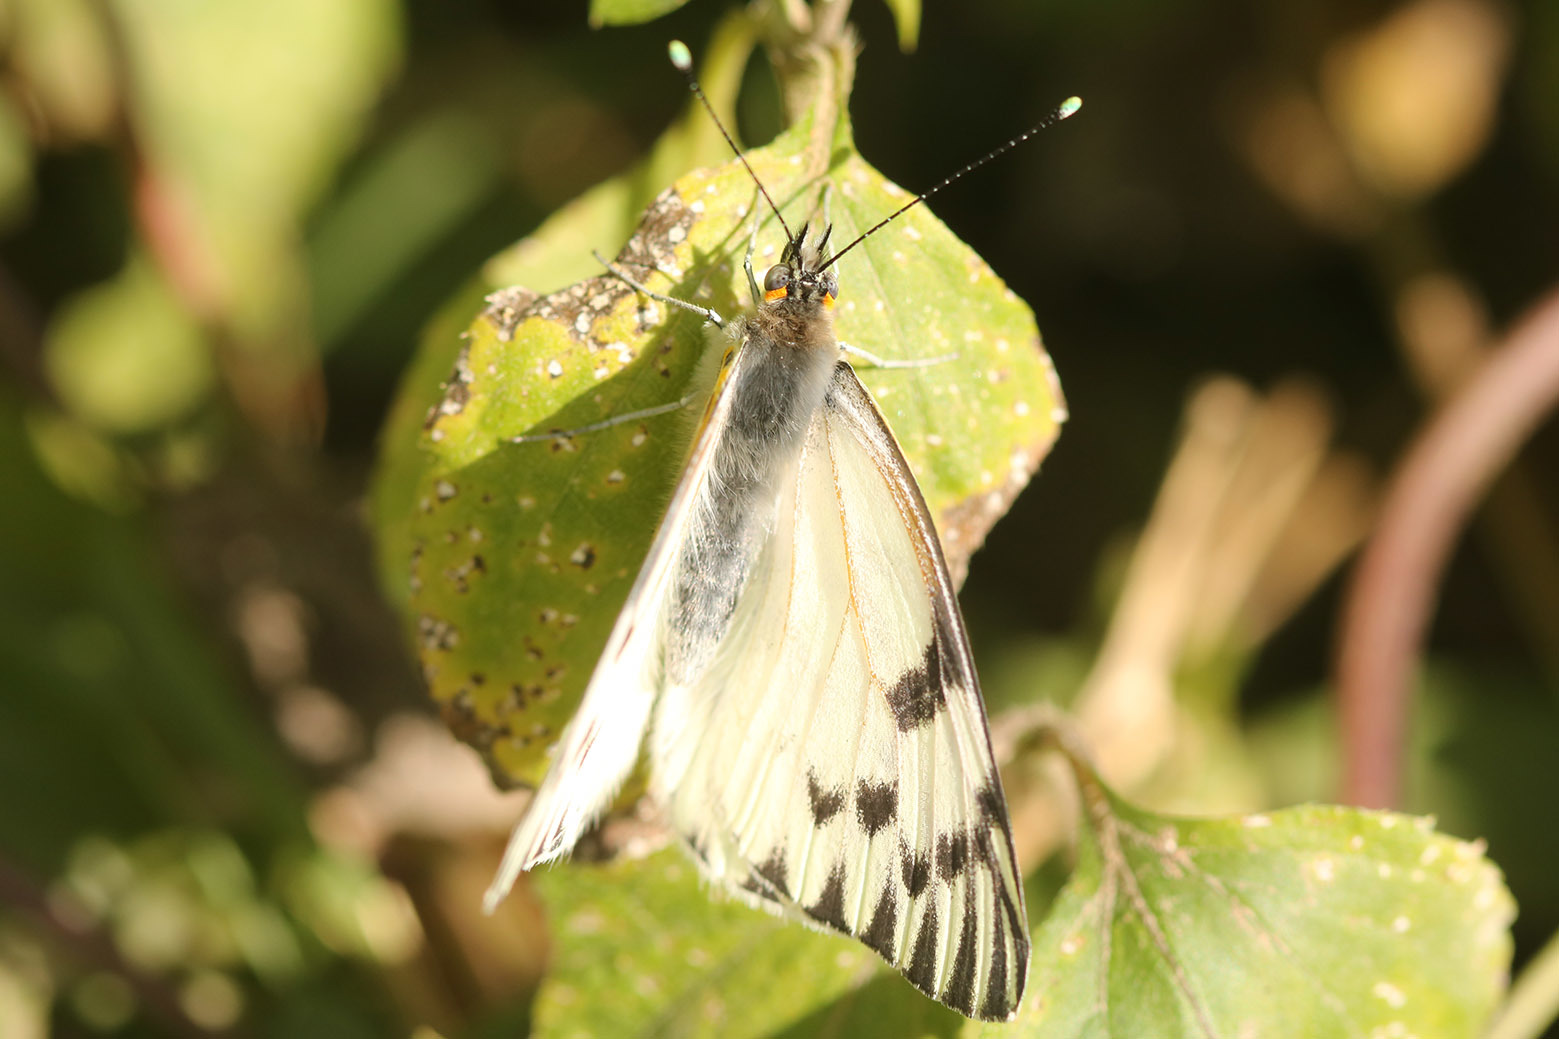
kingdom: Animalia
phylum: Arthropoda
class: Insecta
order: Lepidoptera
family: Pieridae
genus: Tatochila
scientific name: Tatochila autodice
